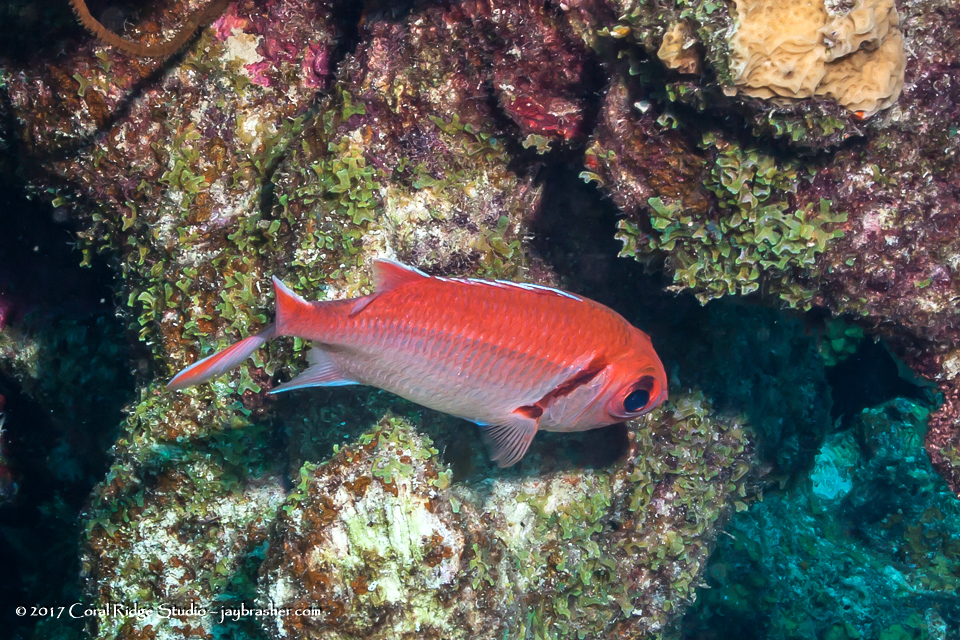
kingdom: Animalia
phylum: Chordata
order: Beryciformes
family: Holocentridae
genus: Myripristis
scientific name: Myripristis jacobus
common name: Blackbar soldierfish
